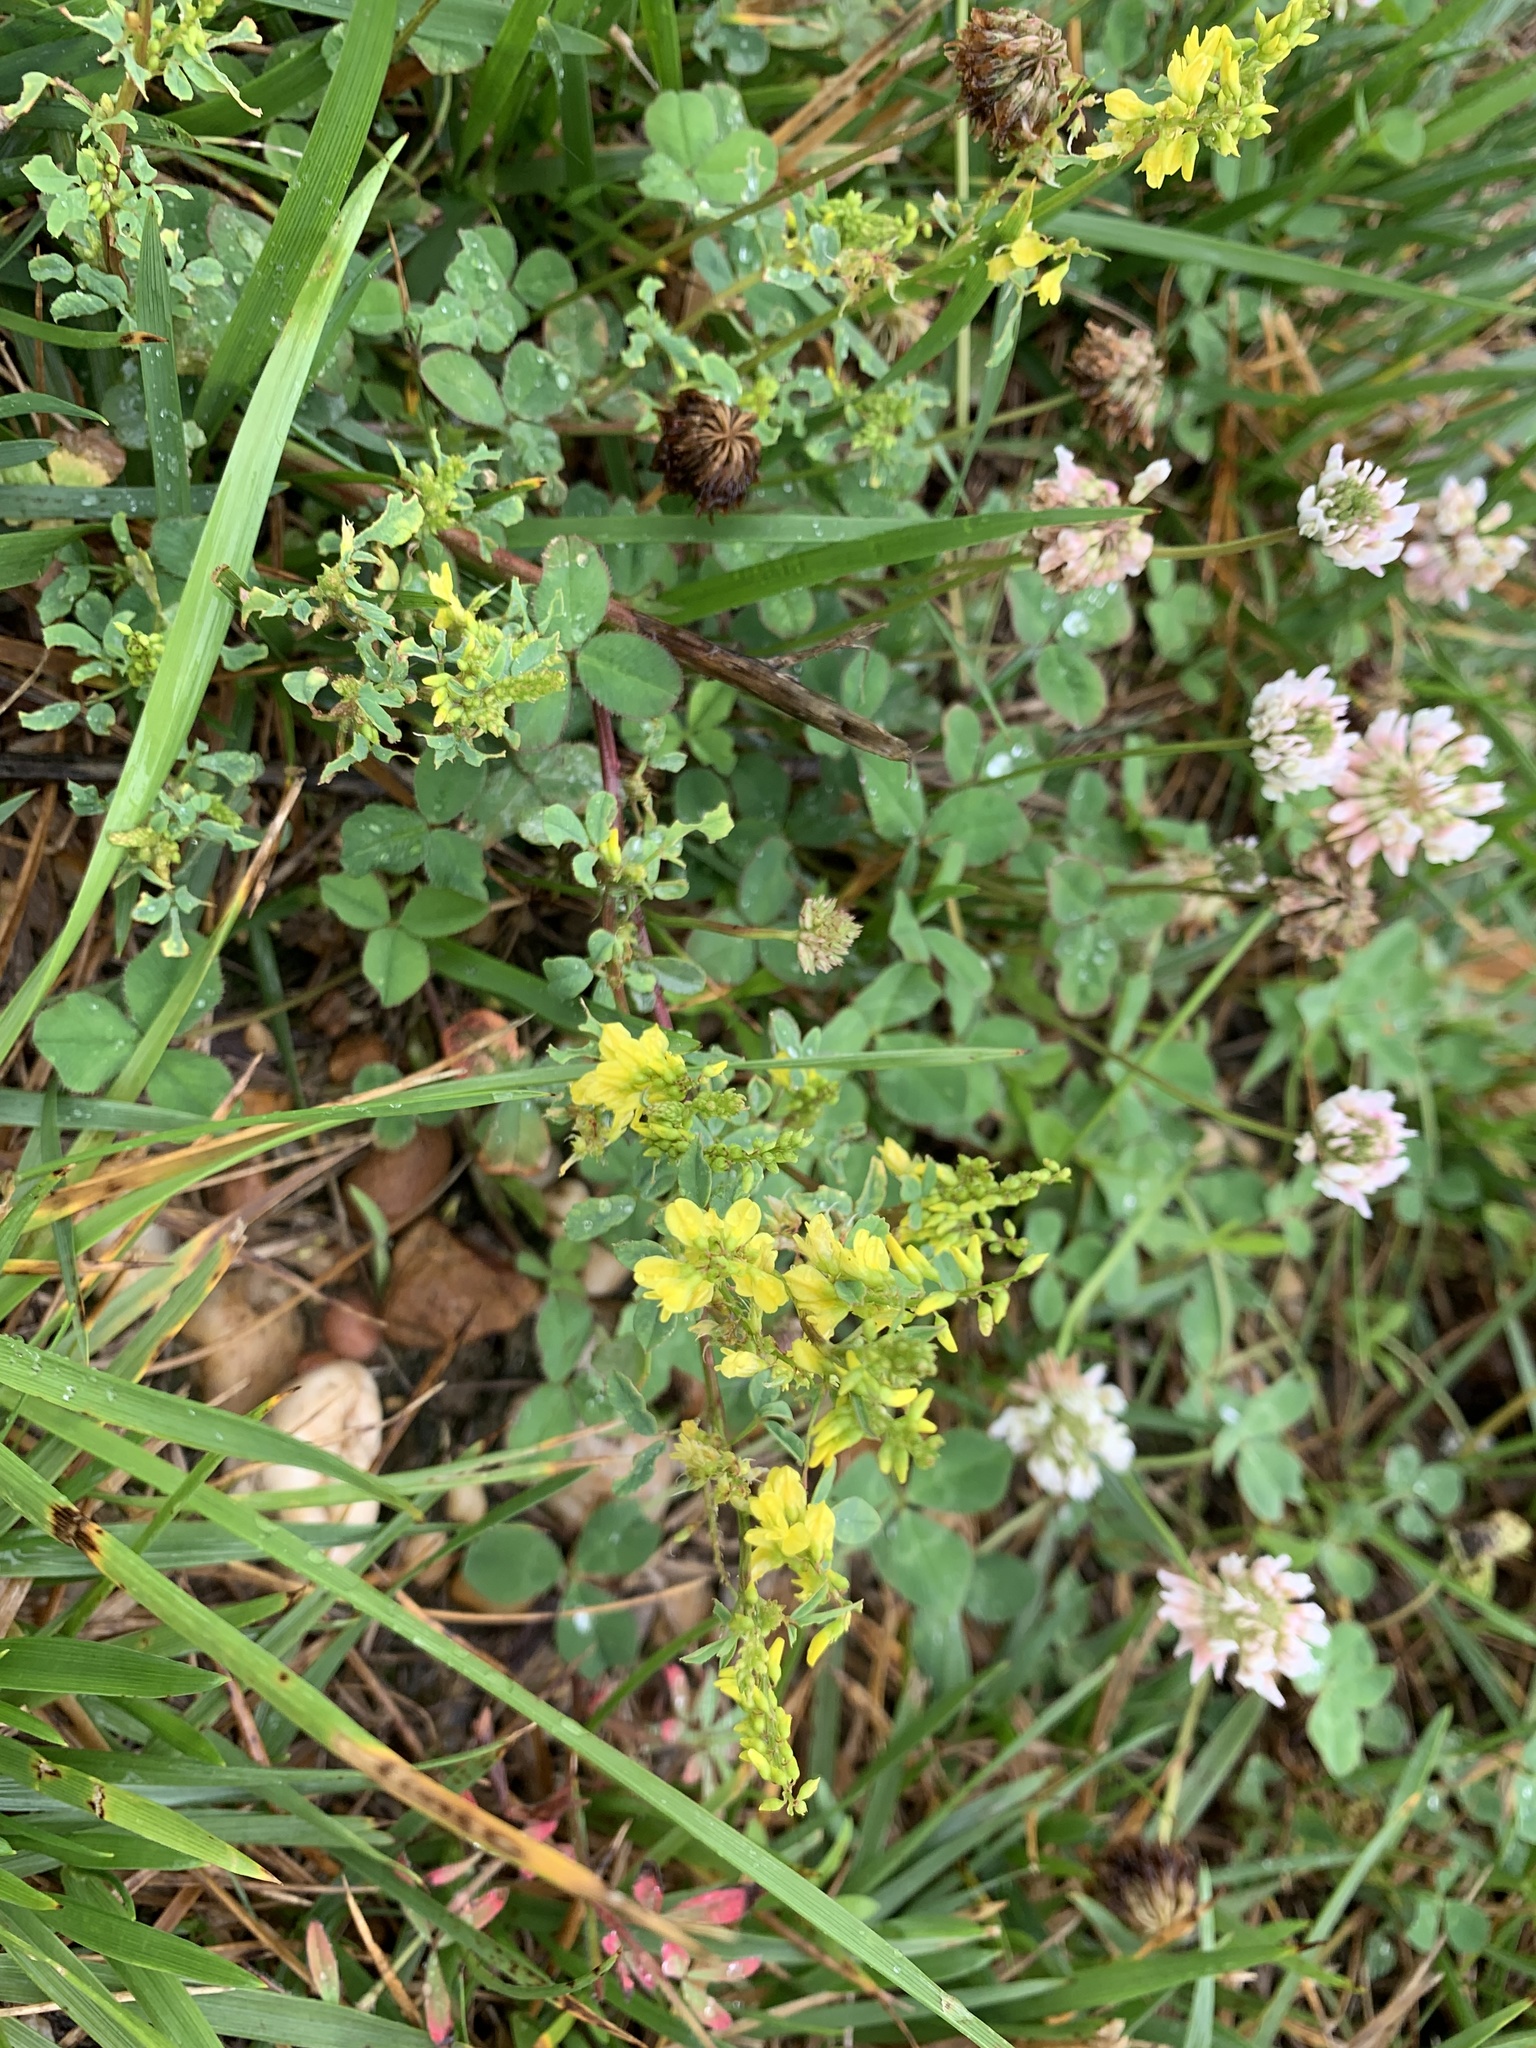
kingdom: Plantae
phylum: Tracheophyta
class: Magnoliopsida
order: Fabales
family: Fabaceae
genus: Melilotus
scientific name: Melilotus officinalis
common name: Sweetclover
